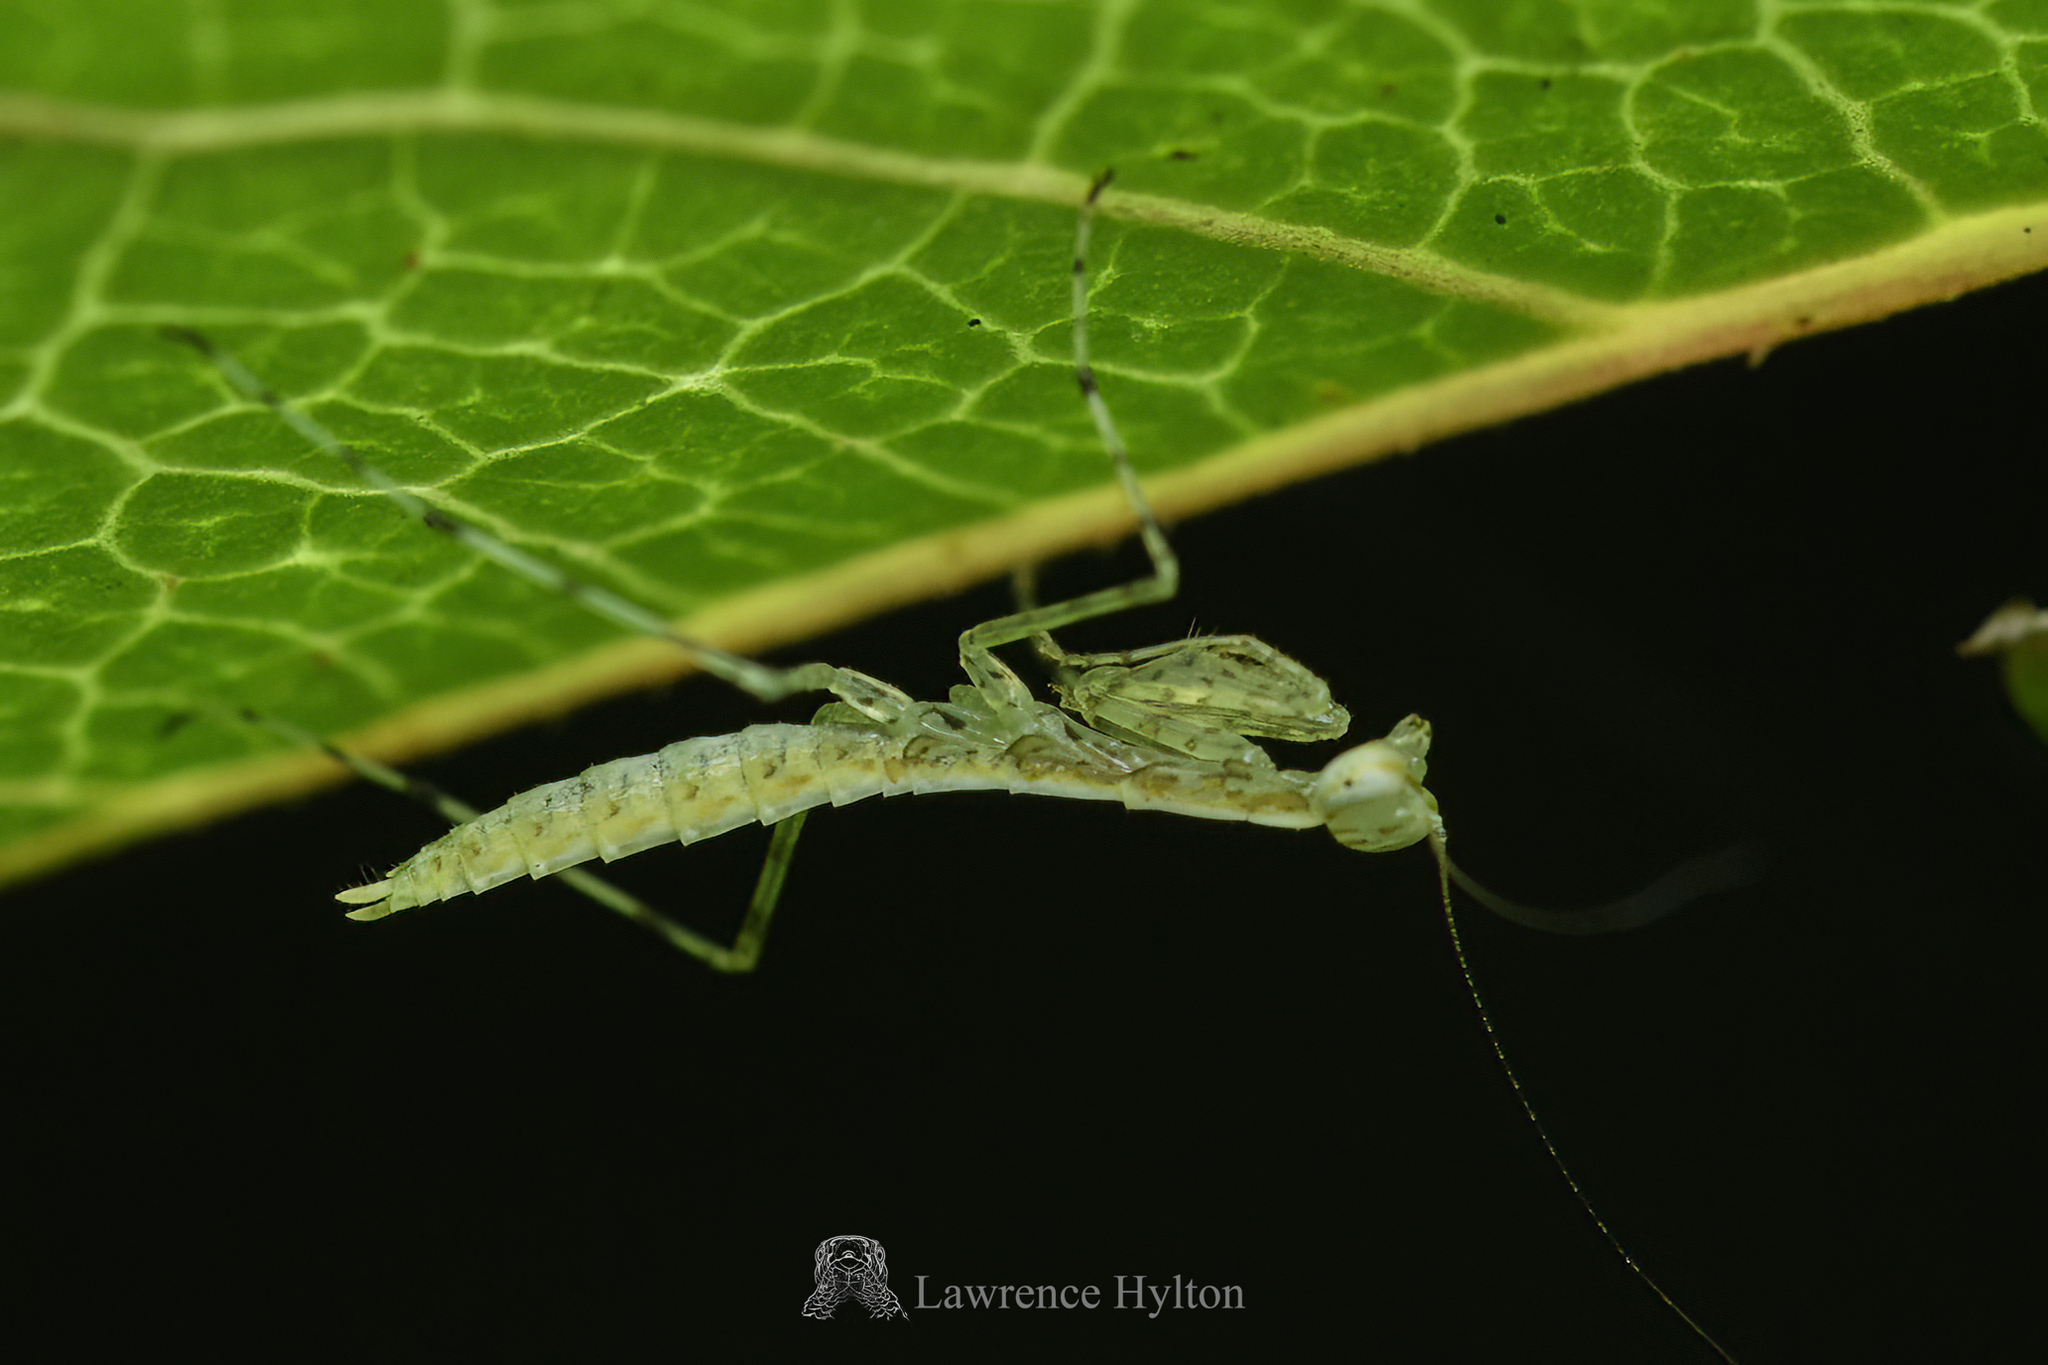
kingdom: Animalia
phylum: Arthropoda
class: Insecta
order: Mantodea
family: Nanomantidae
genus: Tropidomantis
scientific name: Tropidomantis gressitti
